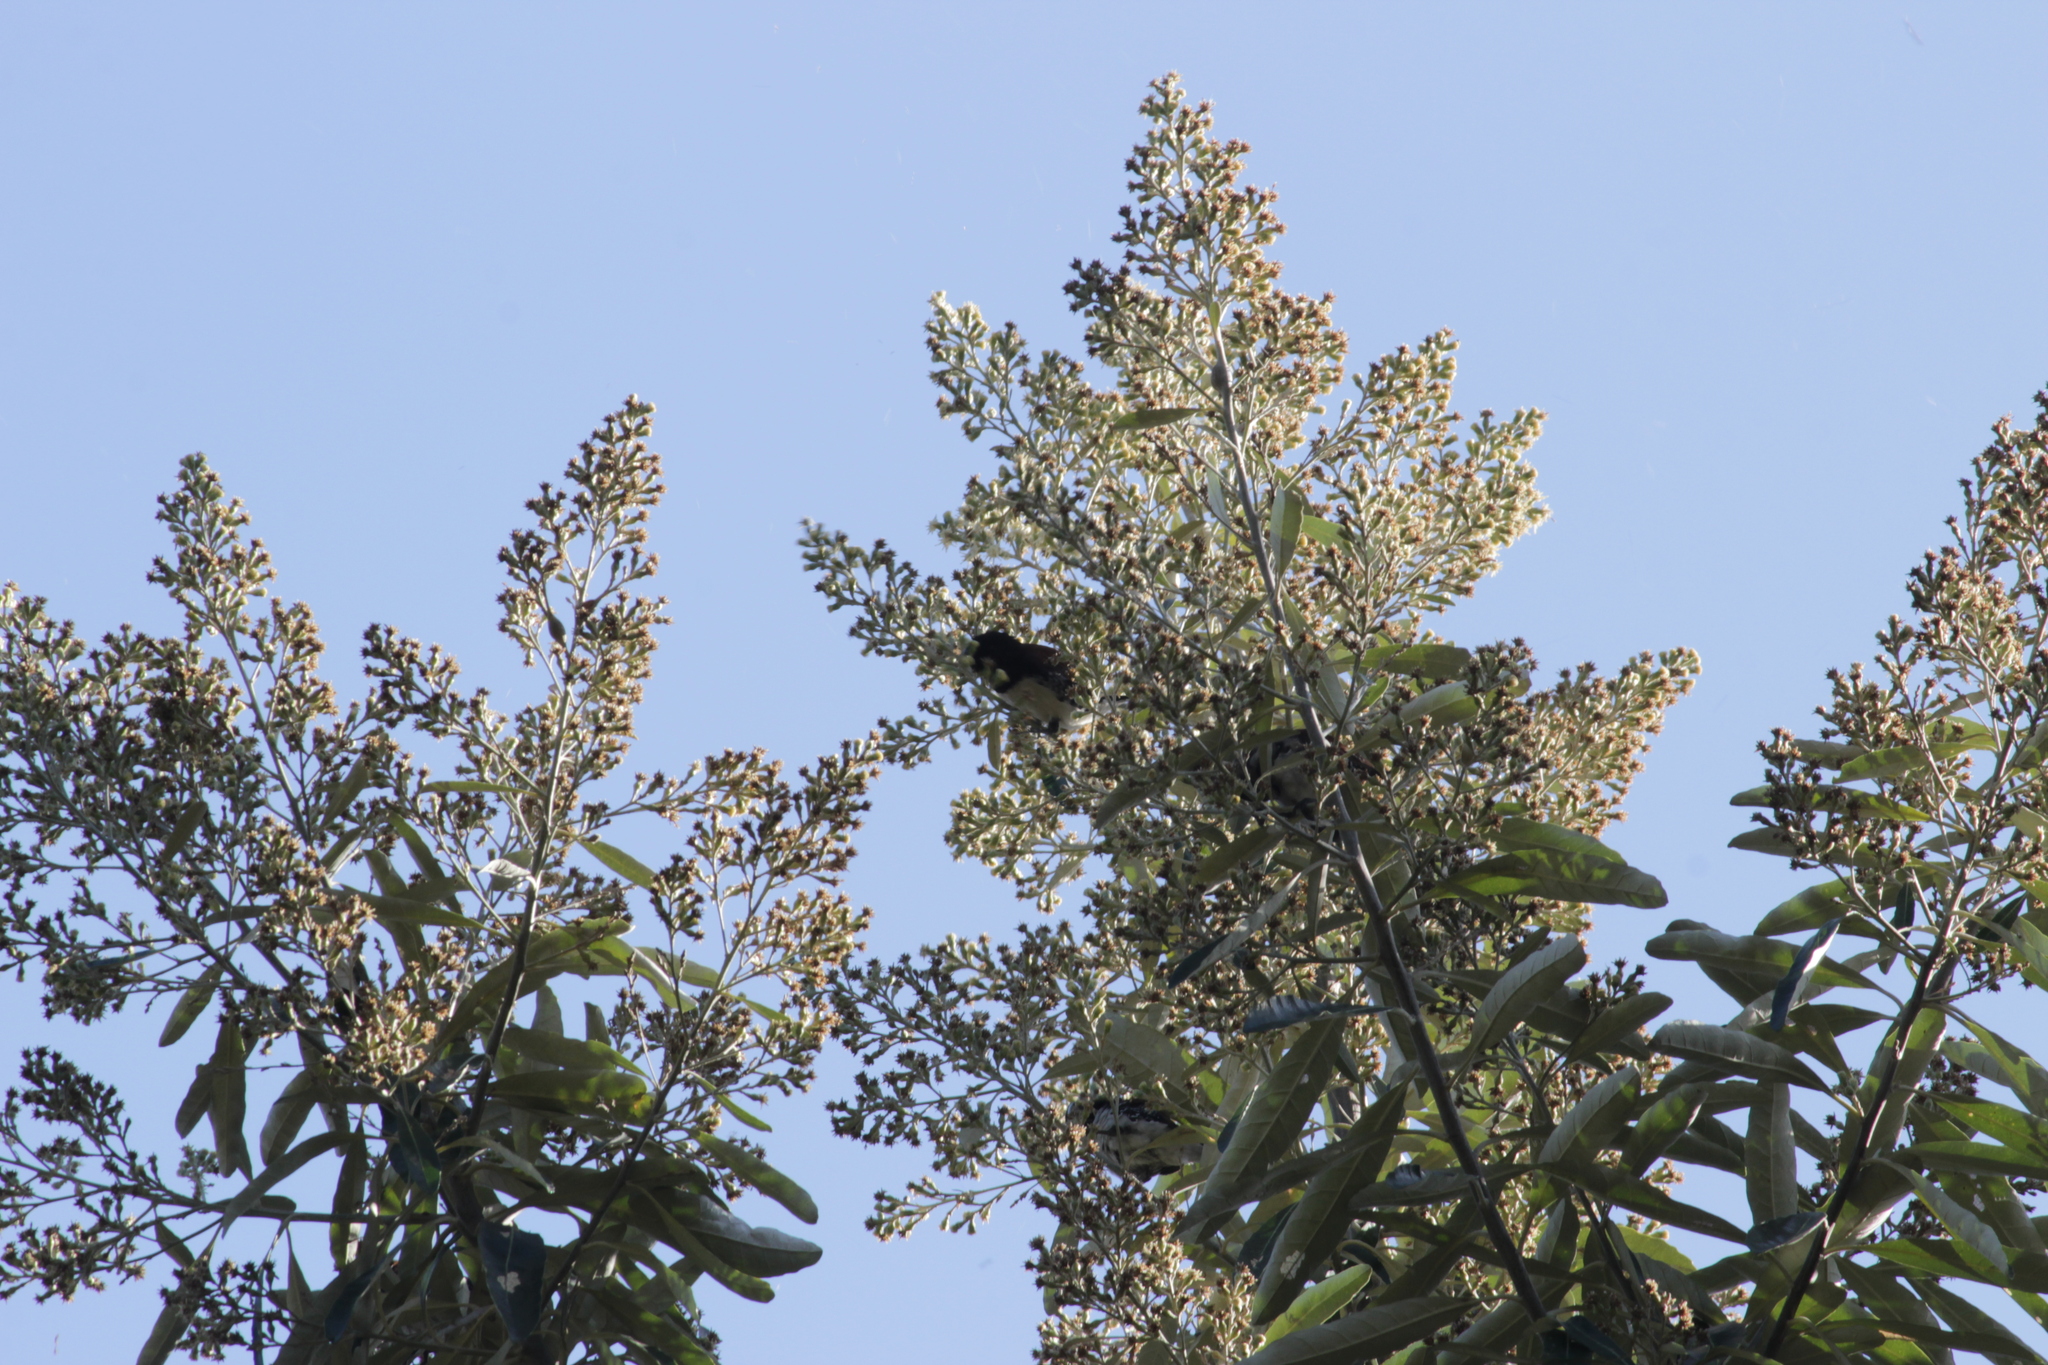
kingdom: Plantae
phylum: Tracheophyta
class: Magnoliopsida
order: Asterales
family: Asteraceae
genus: Brachylaena
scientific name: Brachylaena discolor
